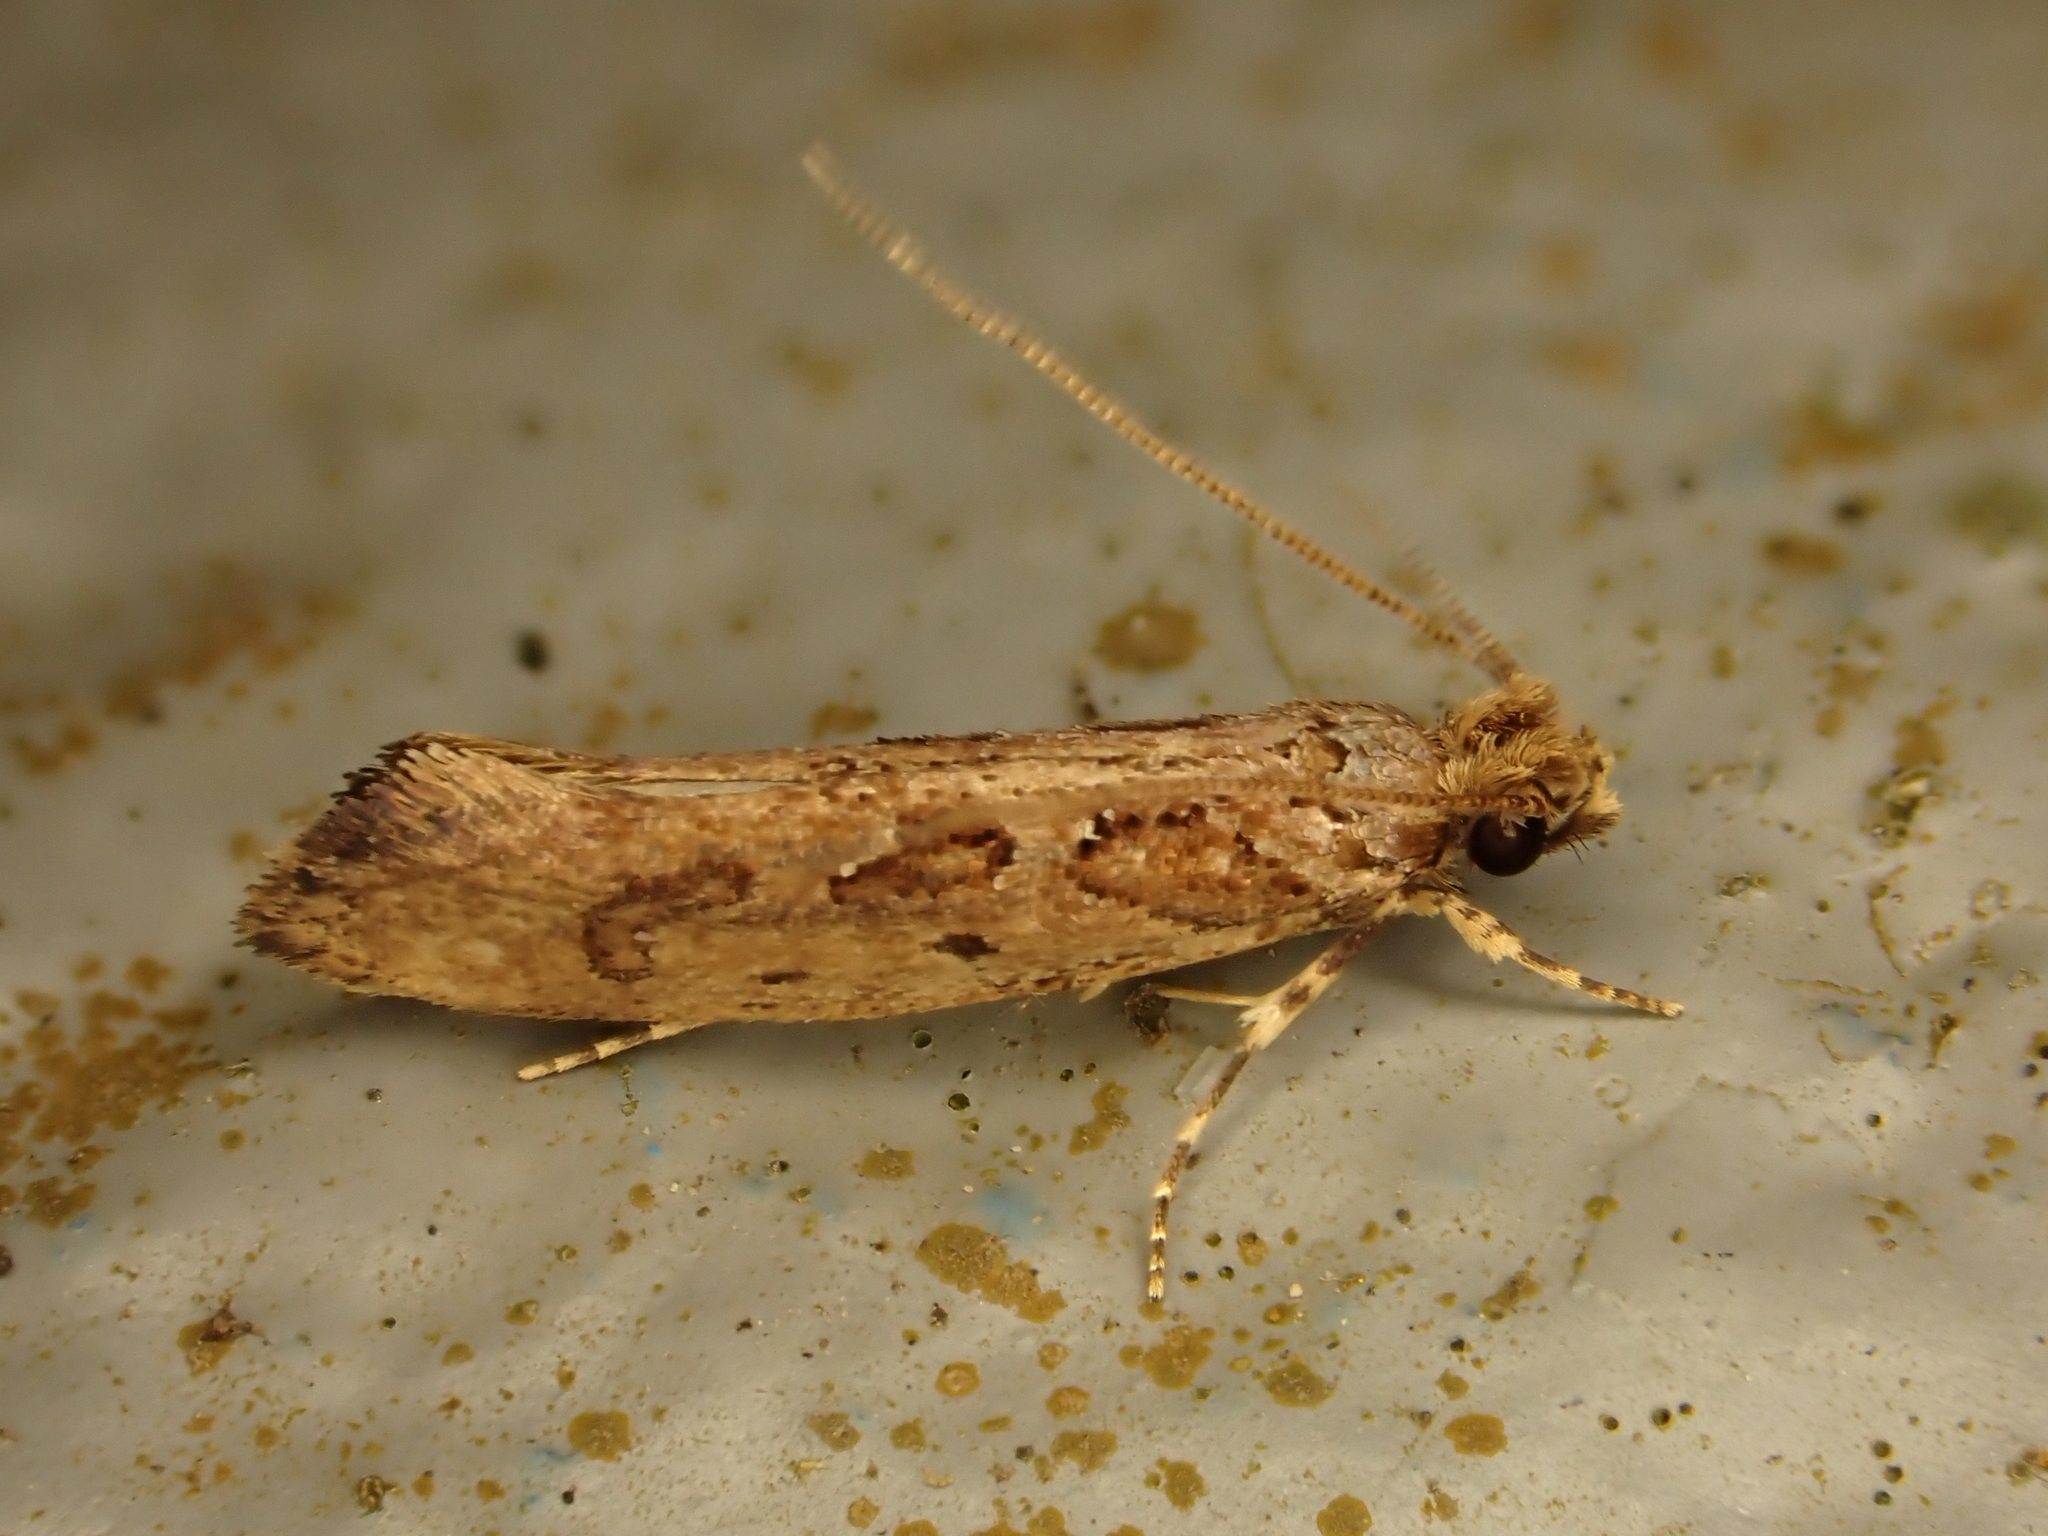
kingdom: Animalia
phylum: Arthropoda
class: Insecta
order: Lepidoptera
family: Tineidae
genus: Erechthias
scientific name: Erechthias capnitis
